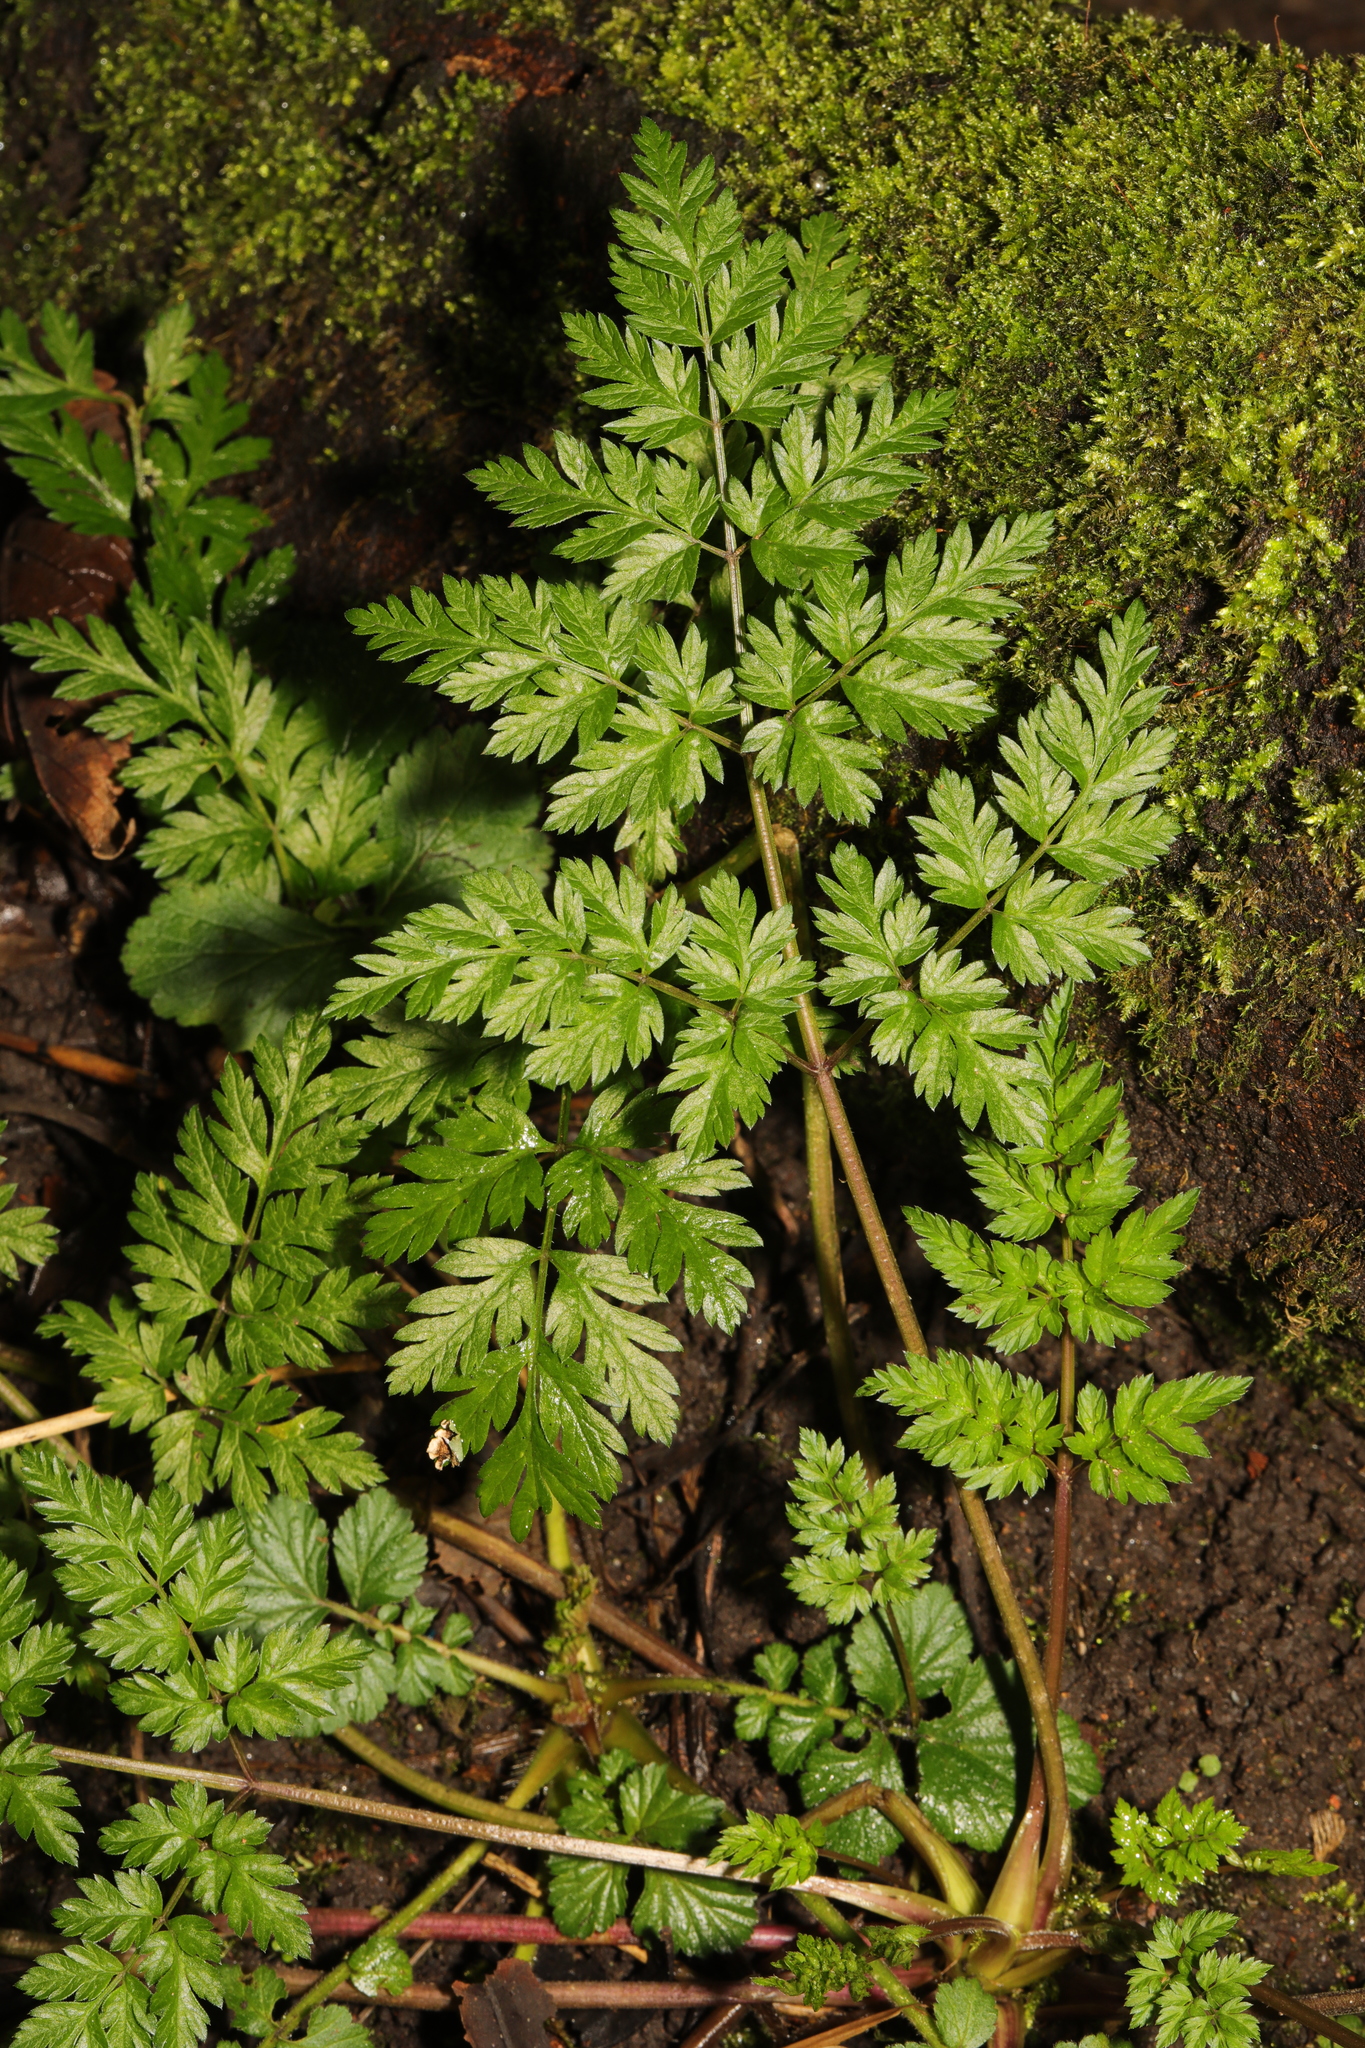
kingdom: Plantae
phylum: Tracheophyta
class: Magnoliopsida
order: Apiales
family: Apiaceae
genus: Anthriscus
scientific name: Anthriscus sylvestris
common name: Cow parsley
